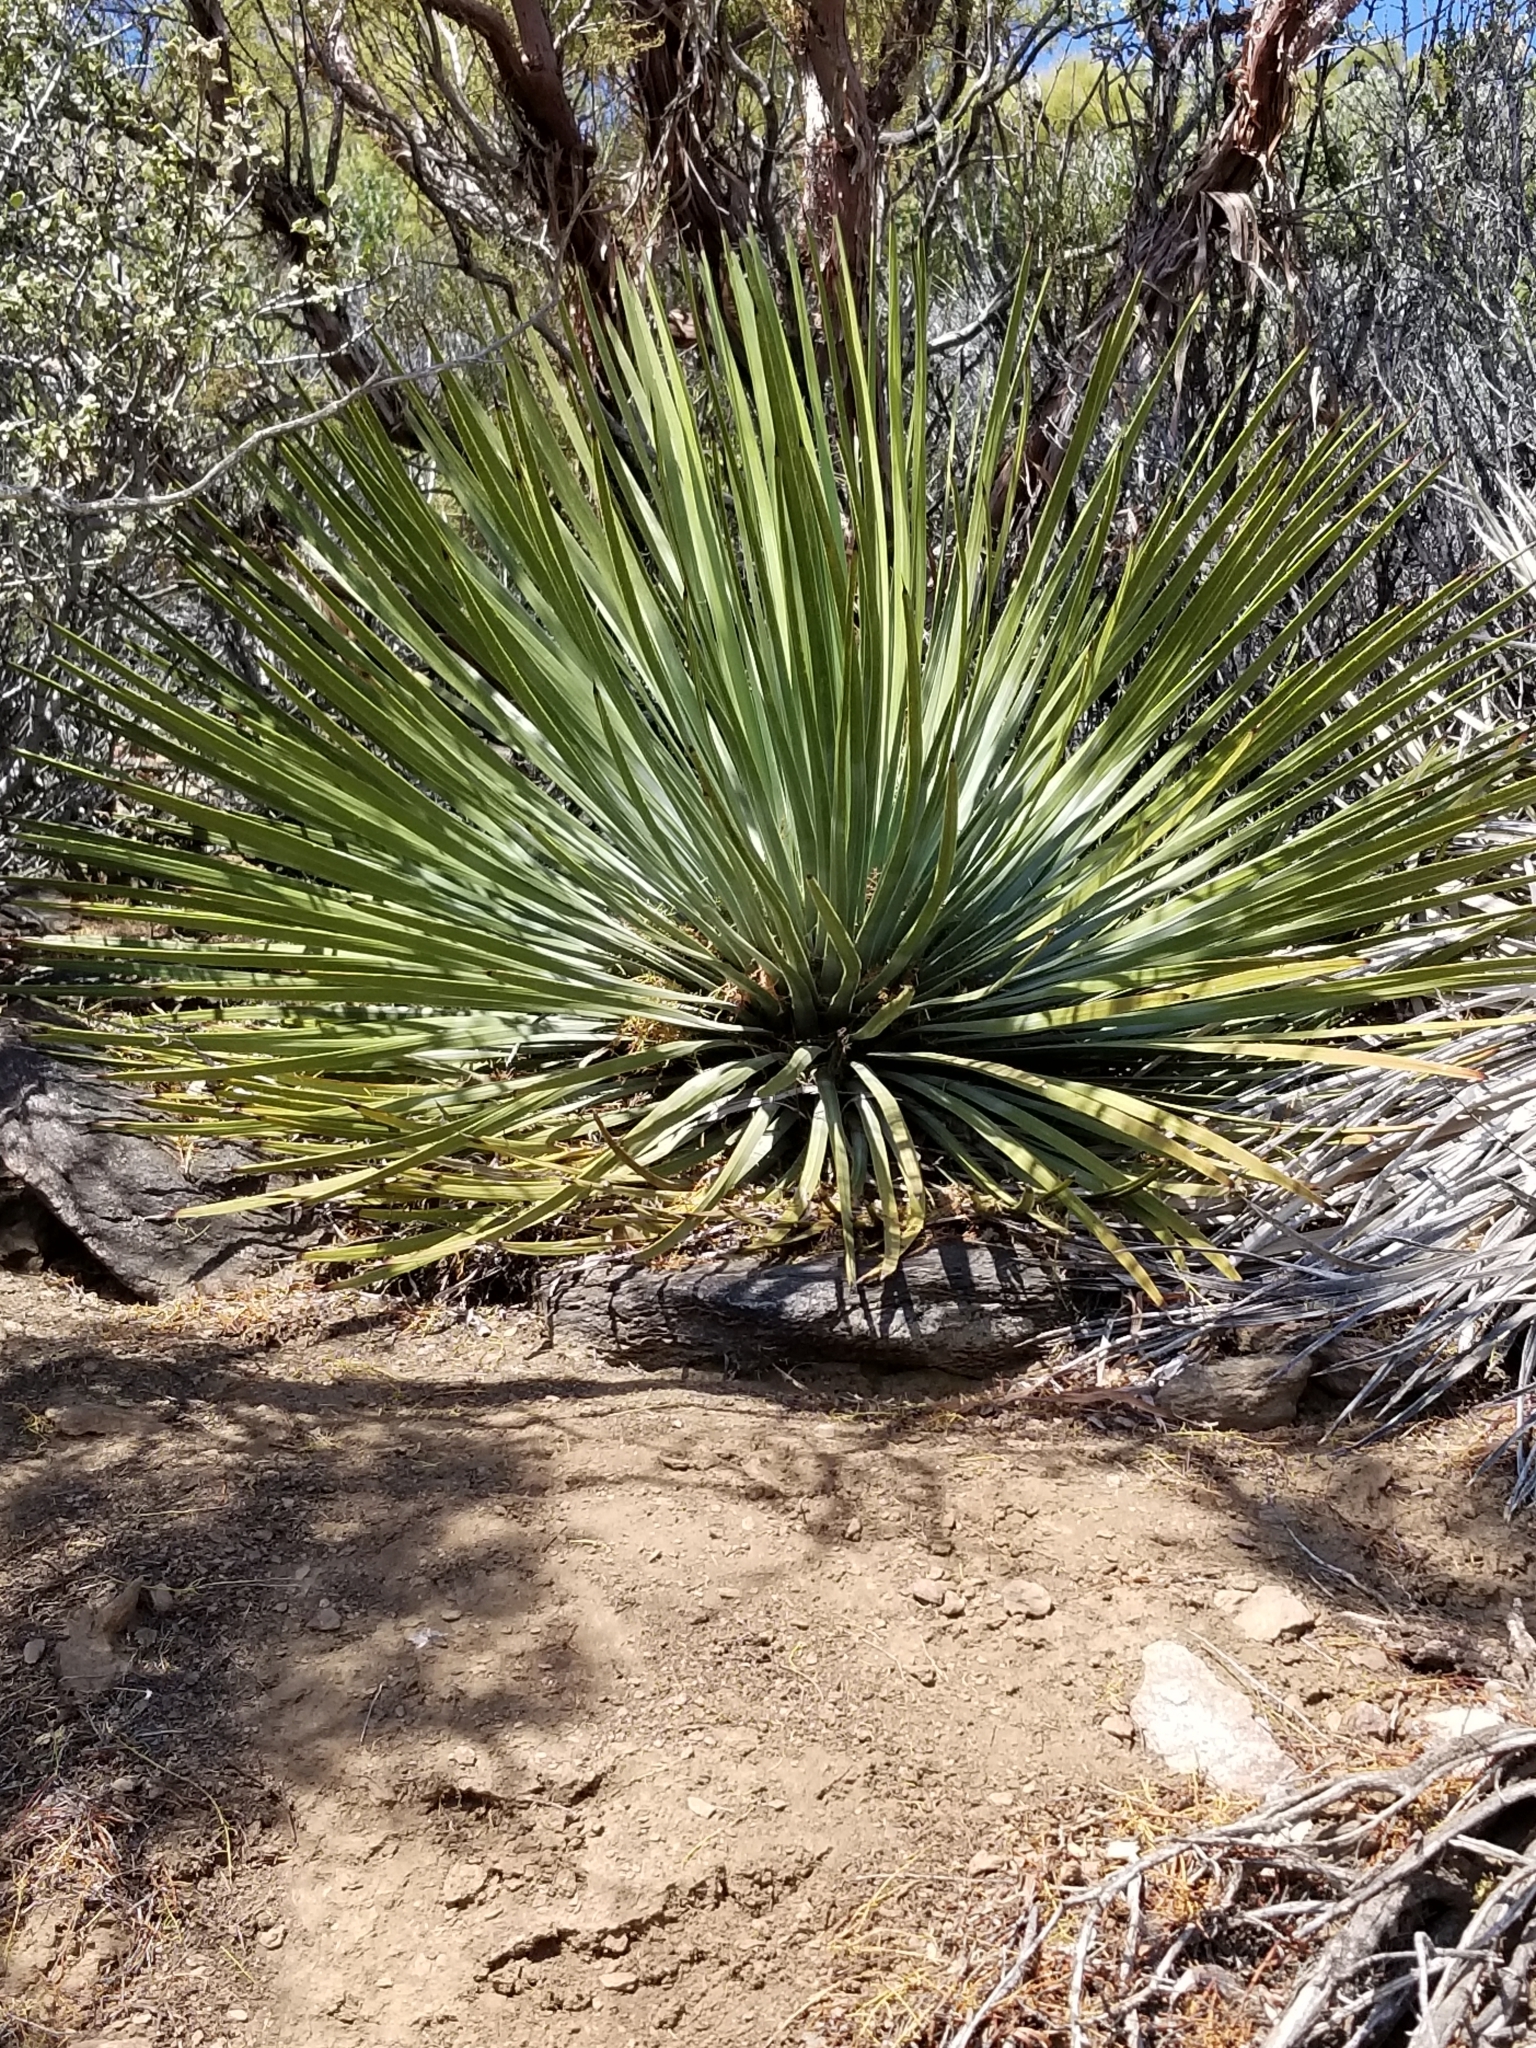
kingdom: Plantae
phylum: Tracheophyta
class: Liliopsida
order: Asparagales
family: Asparagaceae
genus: Hesperoyucca
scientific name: Hesperoyucca whipplei
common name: Our lord's-candle
